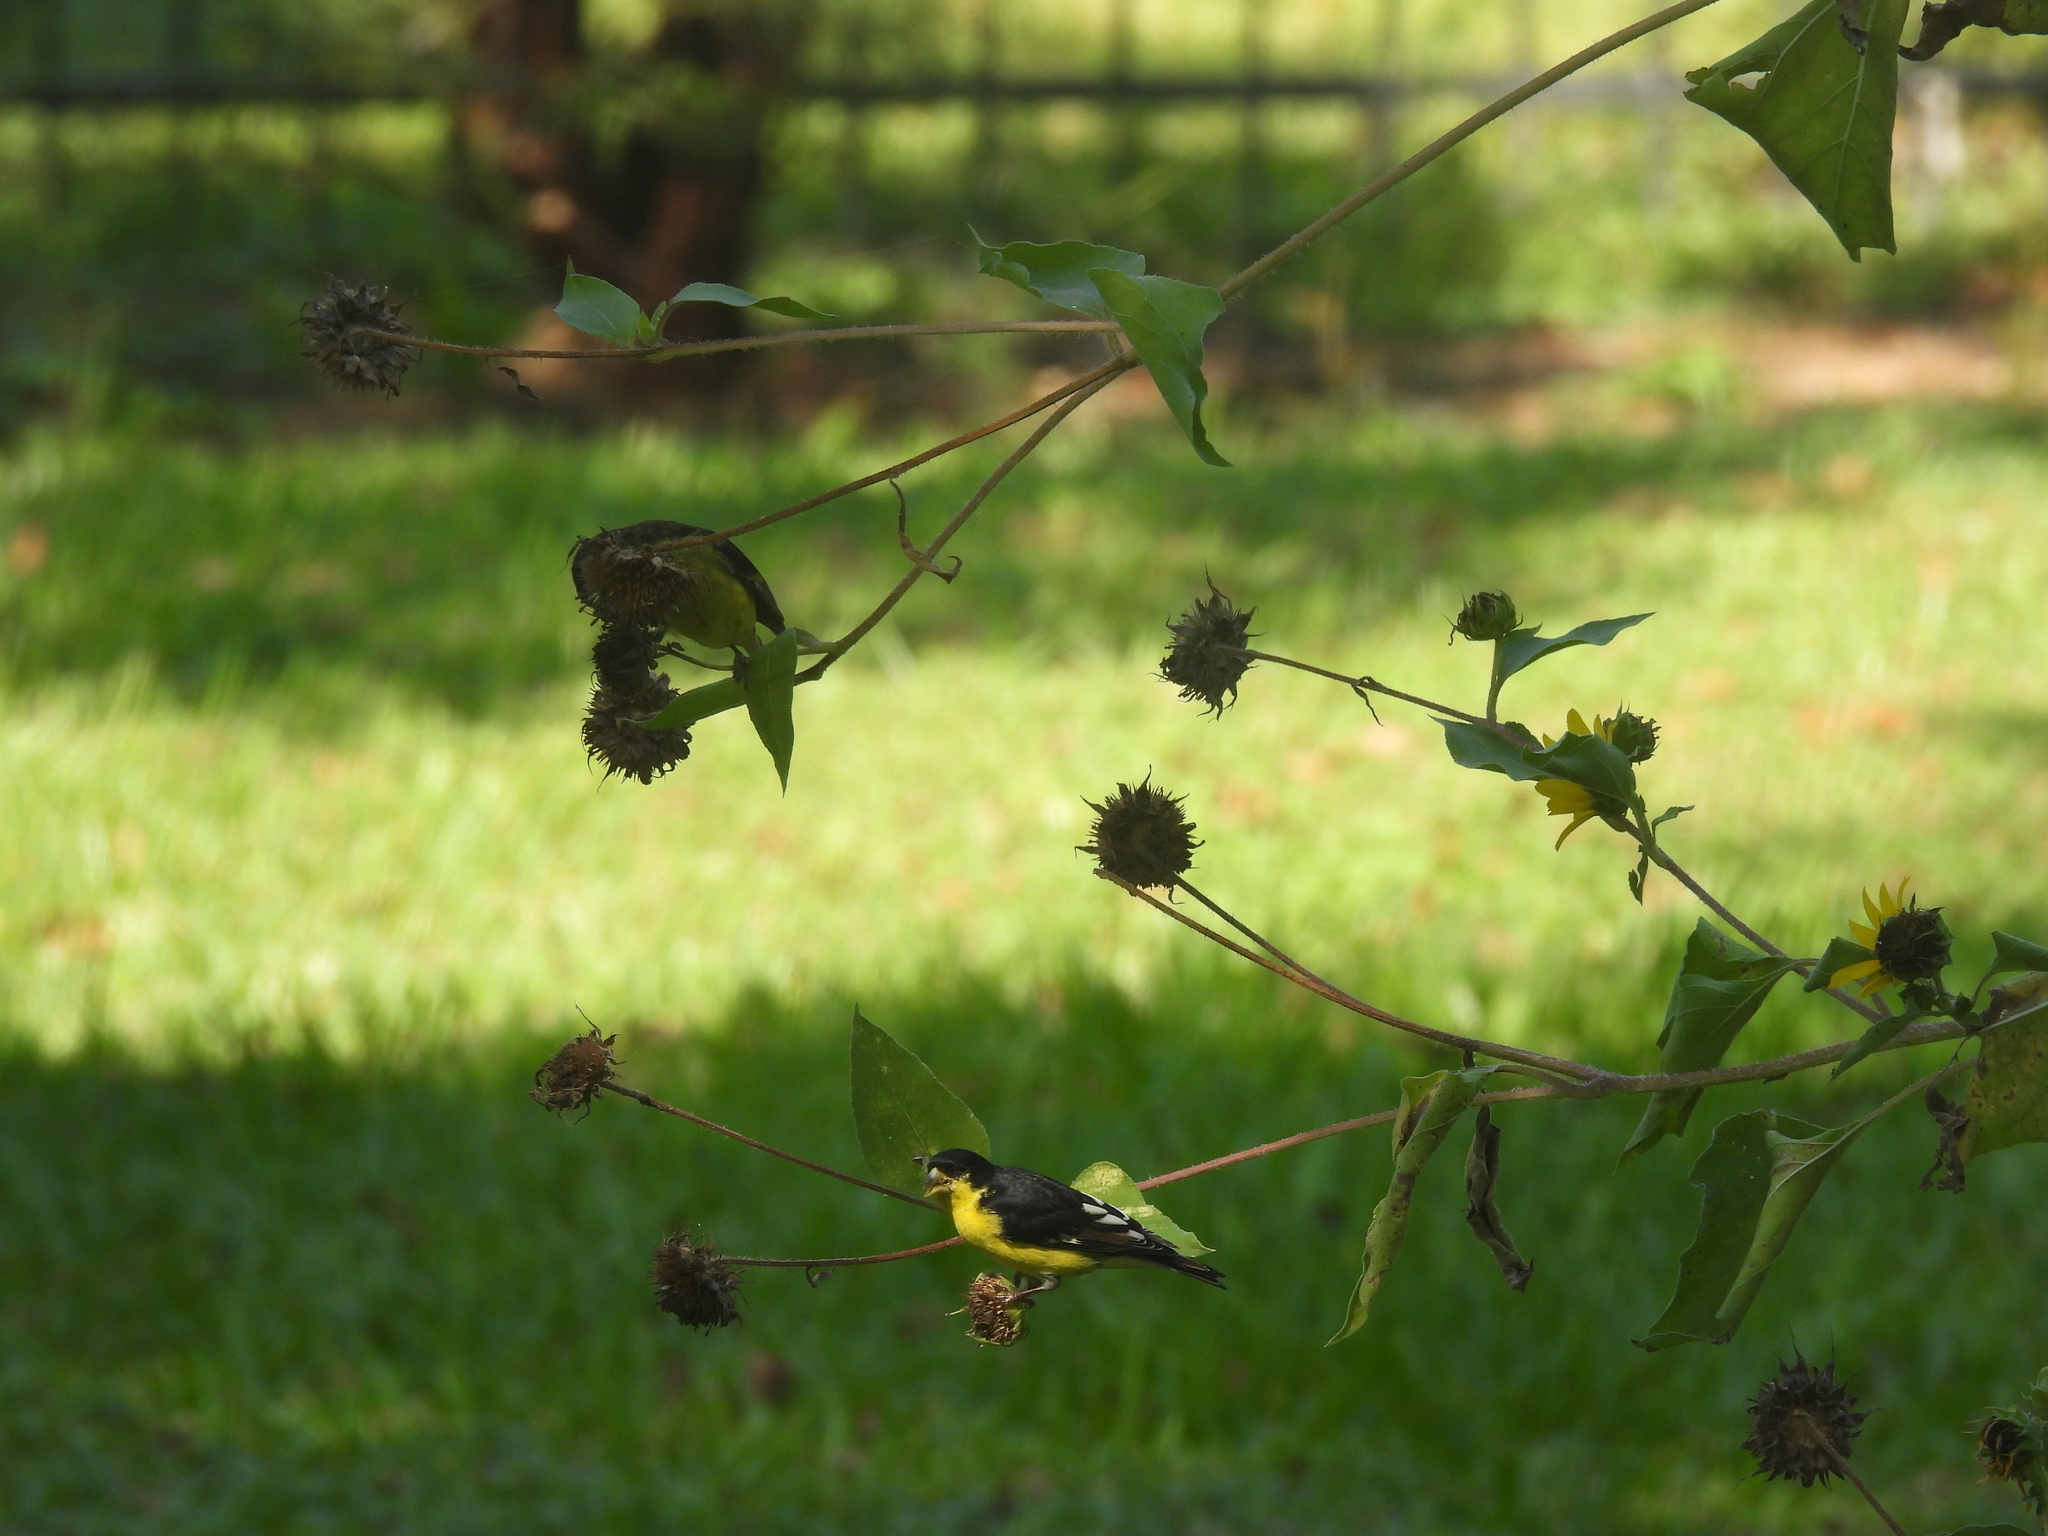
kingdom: Animalia
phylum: Chordata
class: Aves
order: Passeriformes
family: Fringillidae
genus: Spinus
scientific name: Spinus psaltria
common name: Lesser goldfinch
